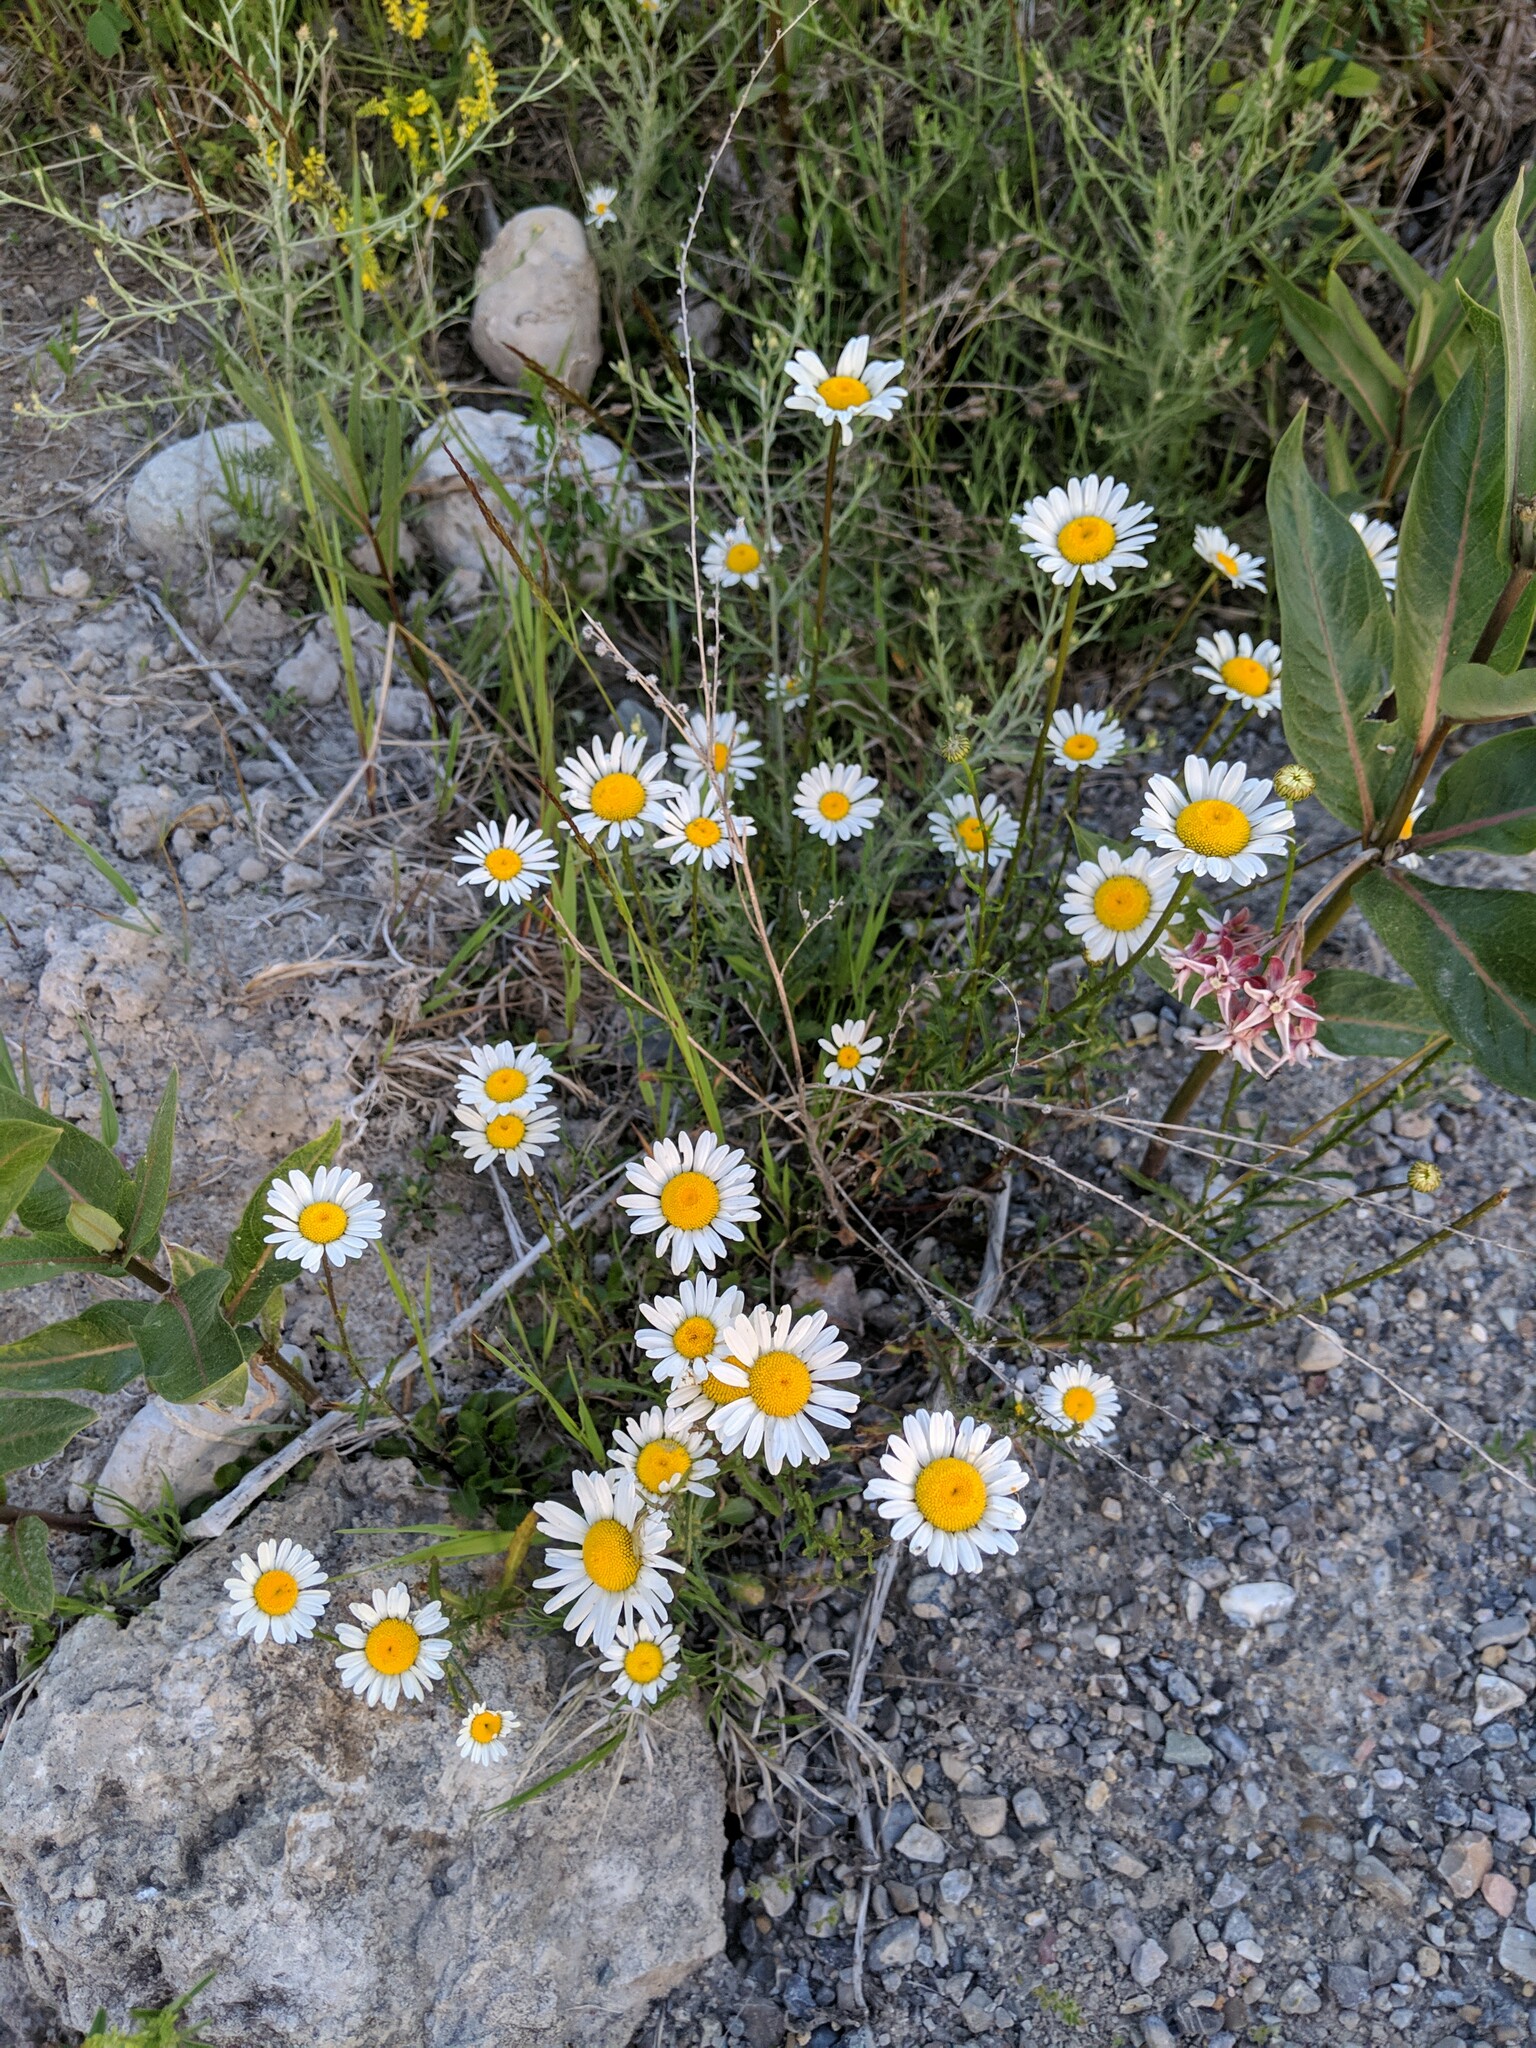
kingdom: Plantae
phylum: Tracheophyta
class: Magnoliopsida
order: Asterales
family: Asteraceae
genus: Leucanthemum
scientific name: Leucanthemum vulgare
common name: Oxeye daisy
